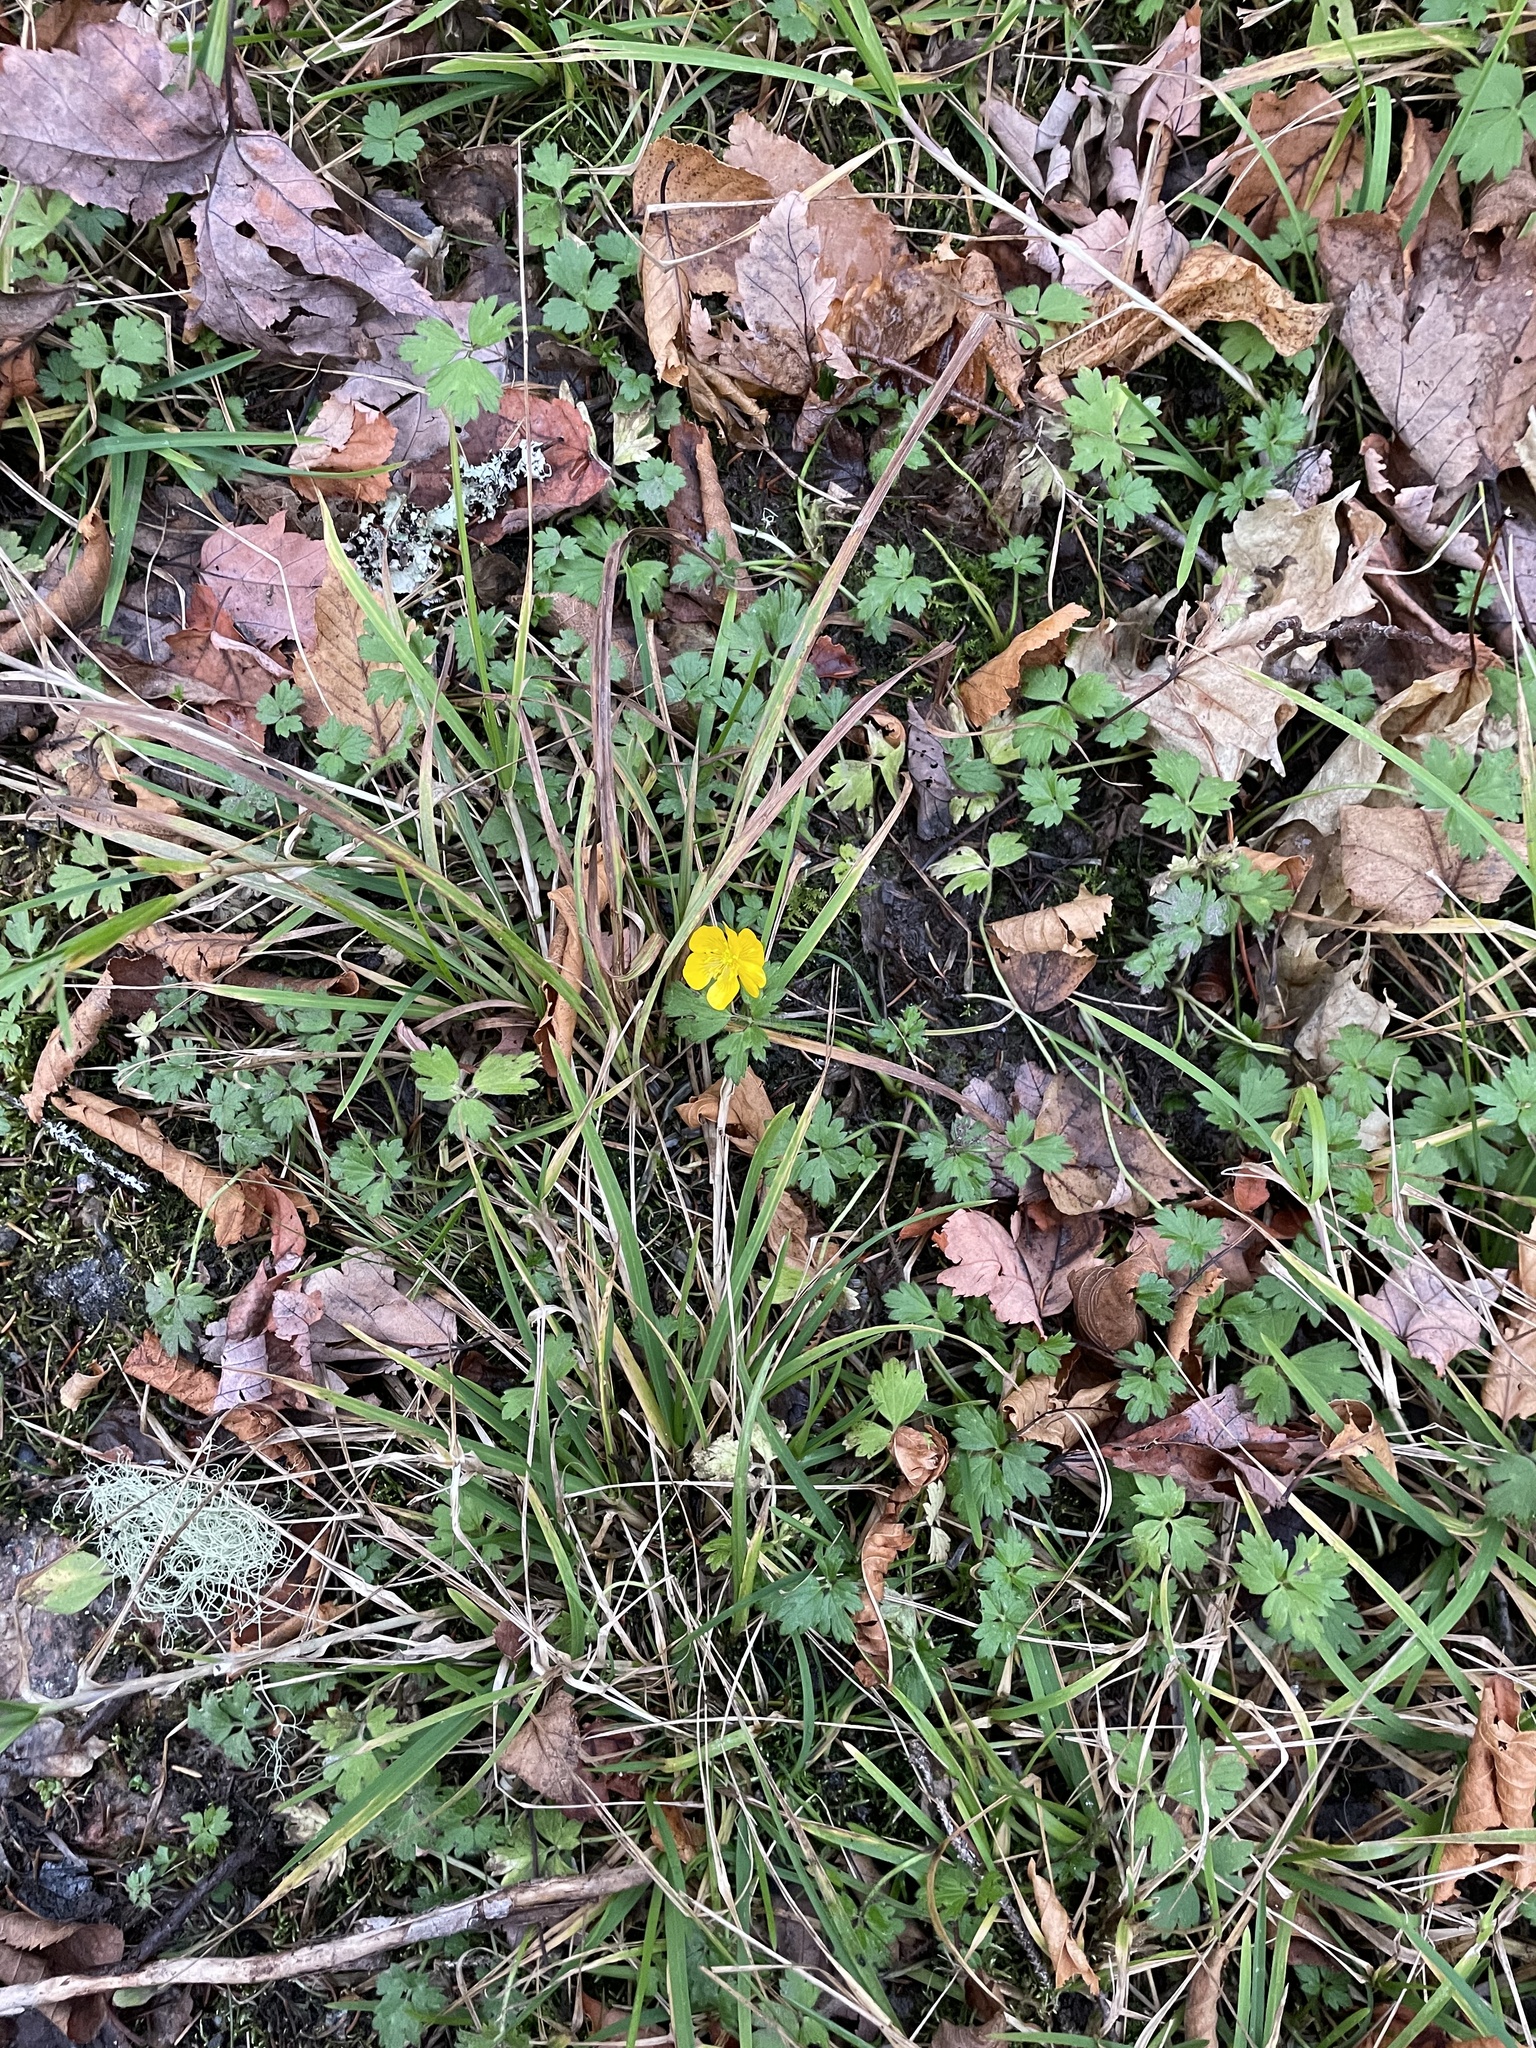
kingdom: Plantae
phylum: Tracheophyta
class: Magnoliopsida
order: Ranunculales
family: Ranunculaceae
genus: Ranunculus
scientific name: Ranunculus repens
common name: Creeping buttercup
